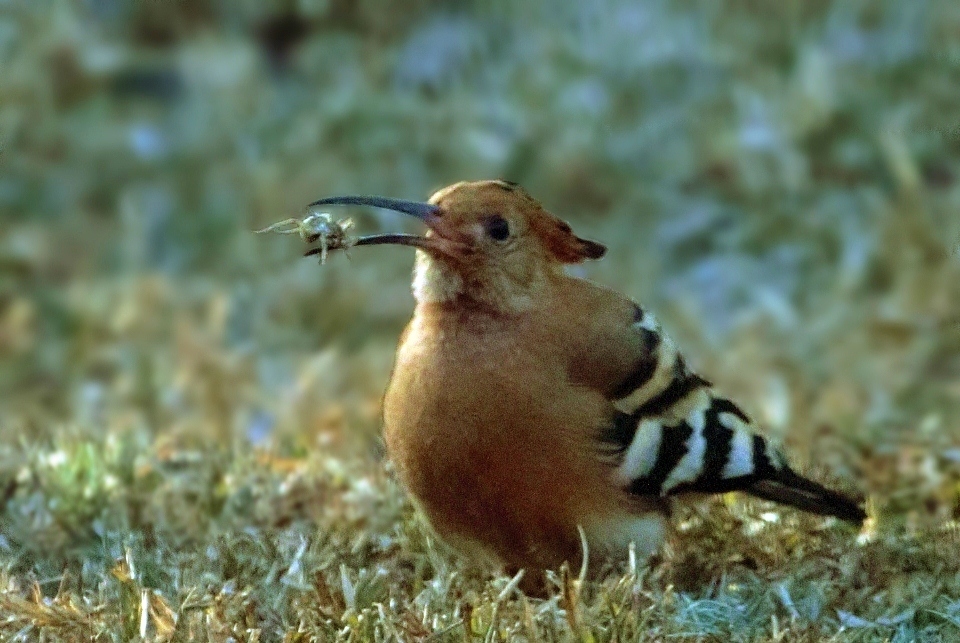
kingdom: Animalia
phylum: Chordata
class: Aves
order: Bucerotiformes
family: Upupidae
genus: Upupa
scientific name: Upupa africana
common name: African hoopoe
